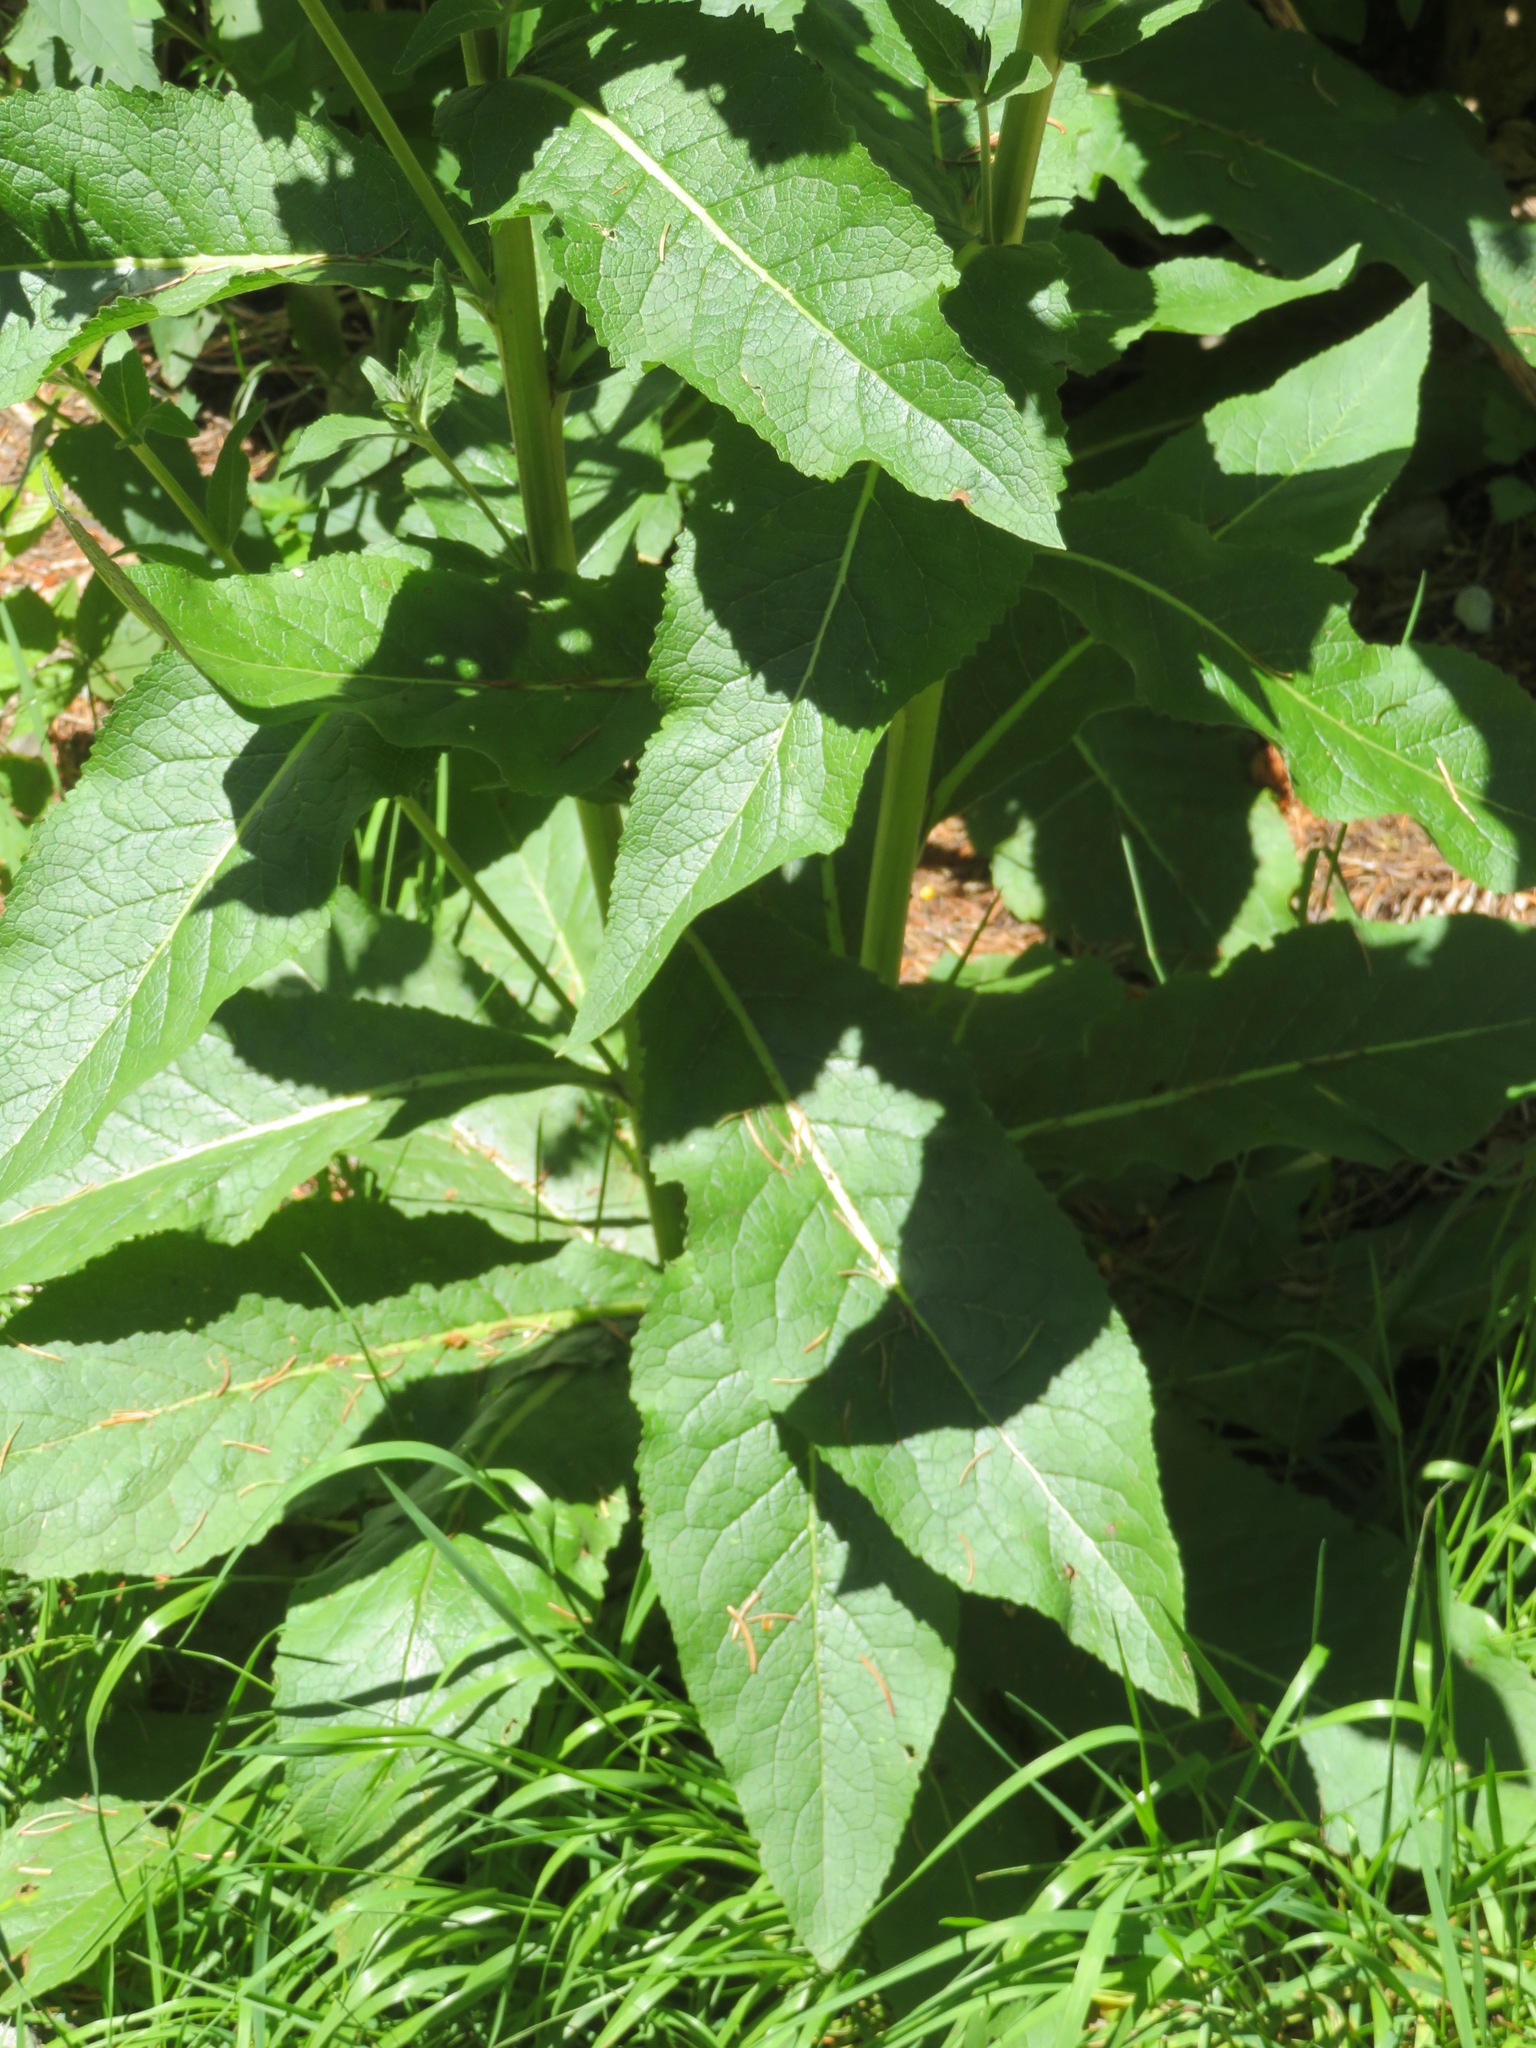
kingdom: Plantae
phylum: Tracheophyta
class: Magnoliopsida
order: Lamiales
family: Scrophulariaceae
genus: Verbascum
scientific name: Verbascum lychnitis
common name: White mullein
